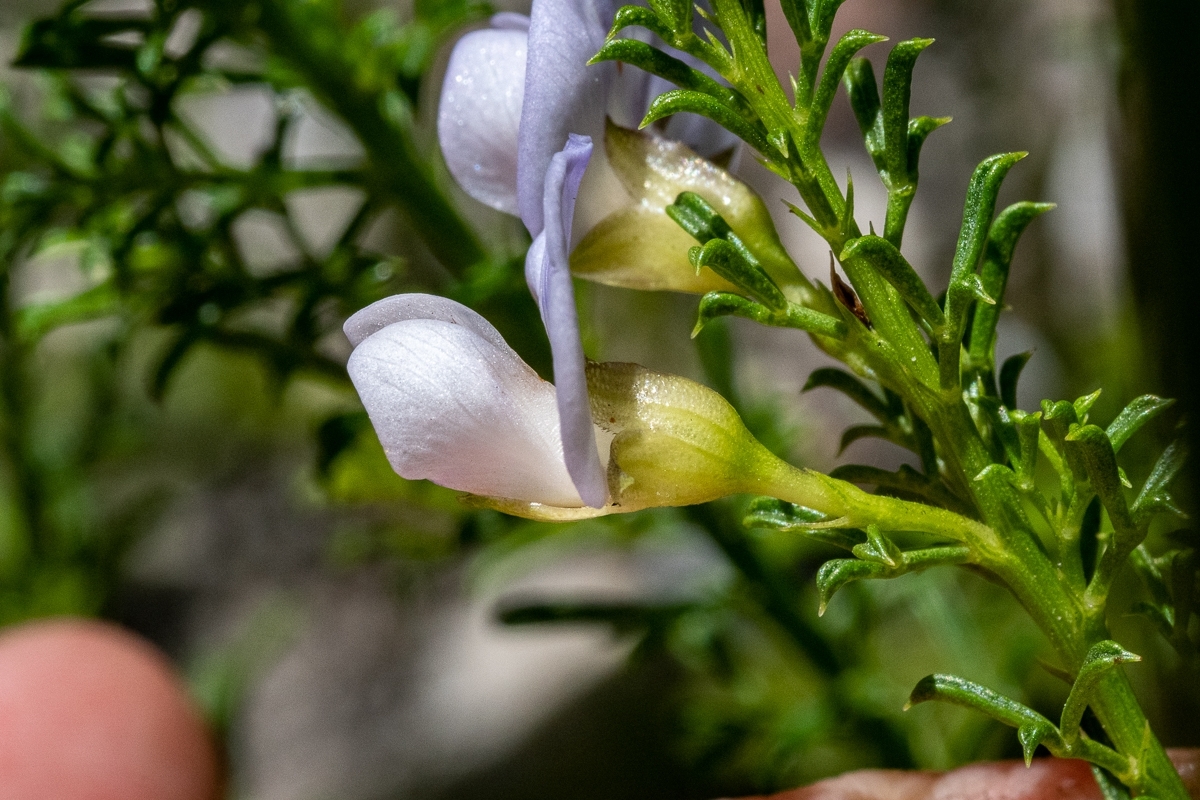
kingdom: Plantae
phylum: Tracheophyta
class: Magnoliopsida
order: Fabales
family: Fabaceae
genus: Psoralea
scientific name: Psoralea aculeata
